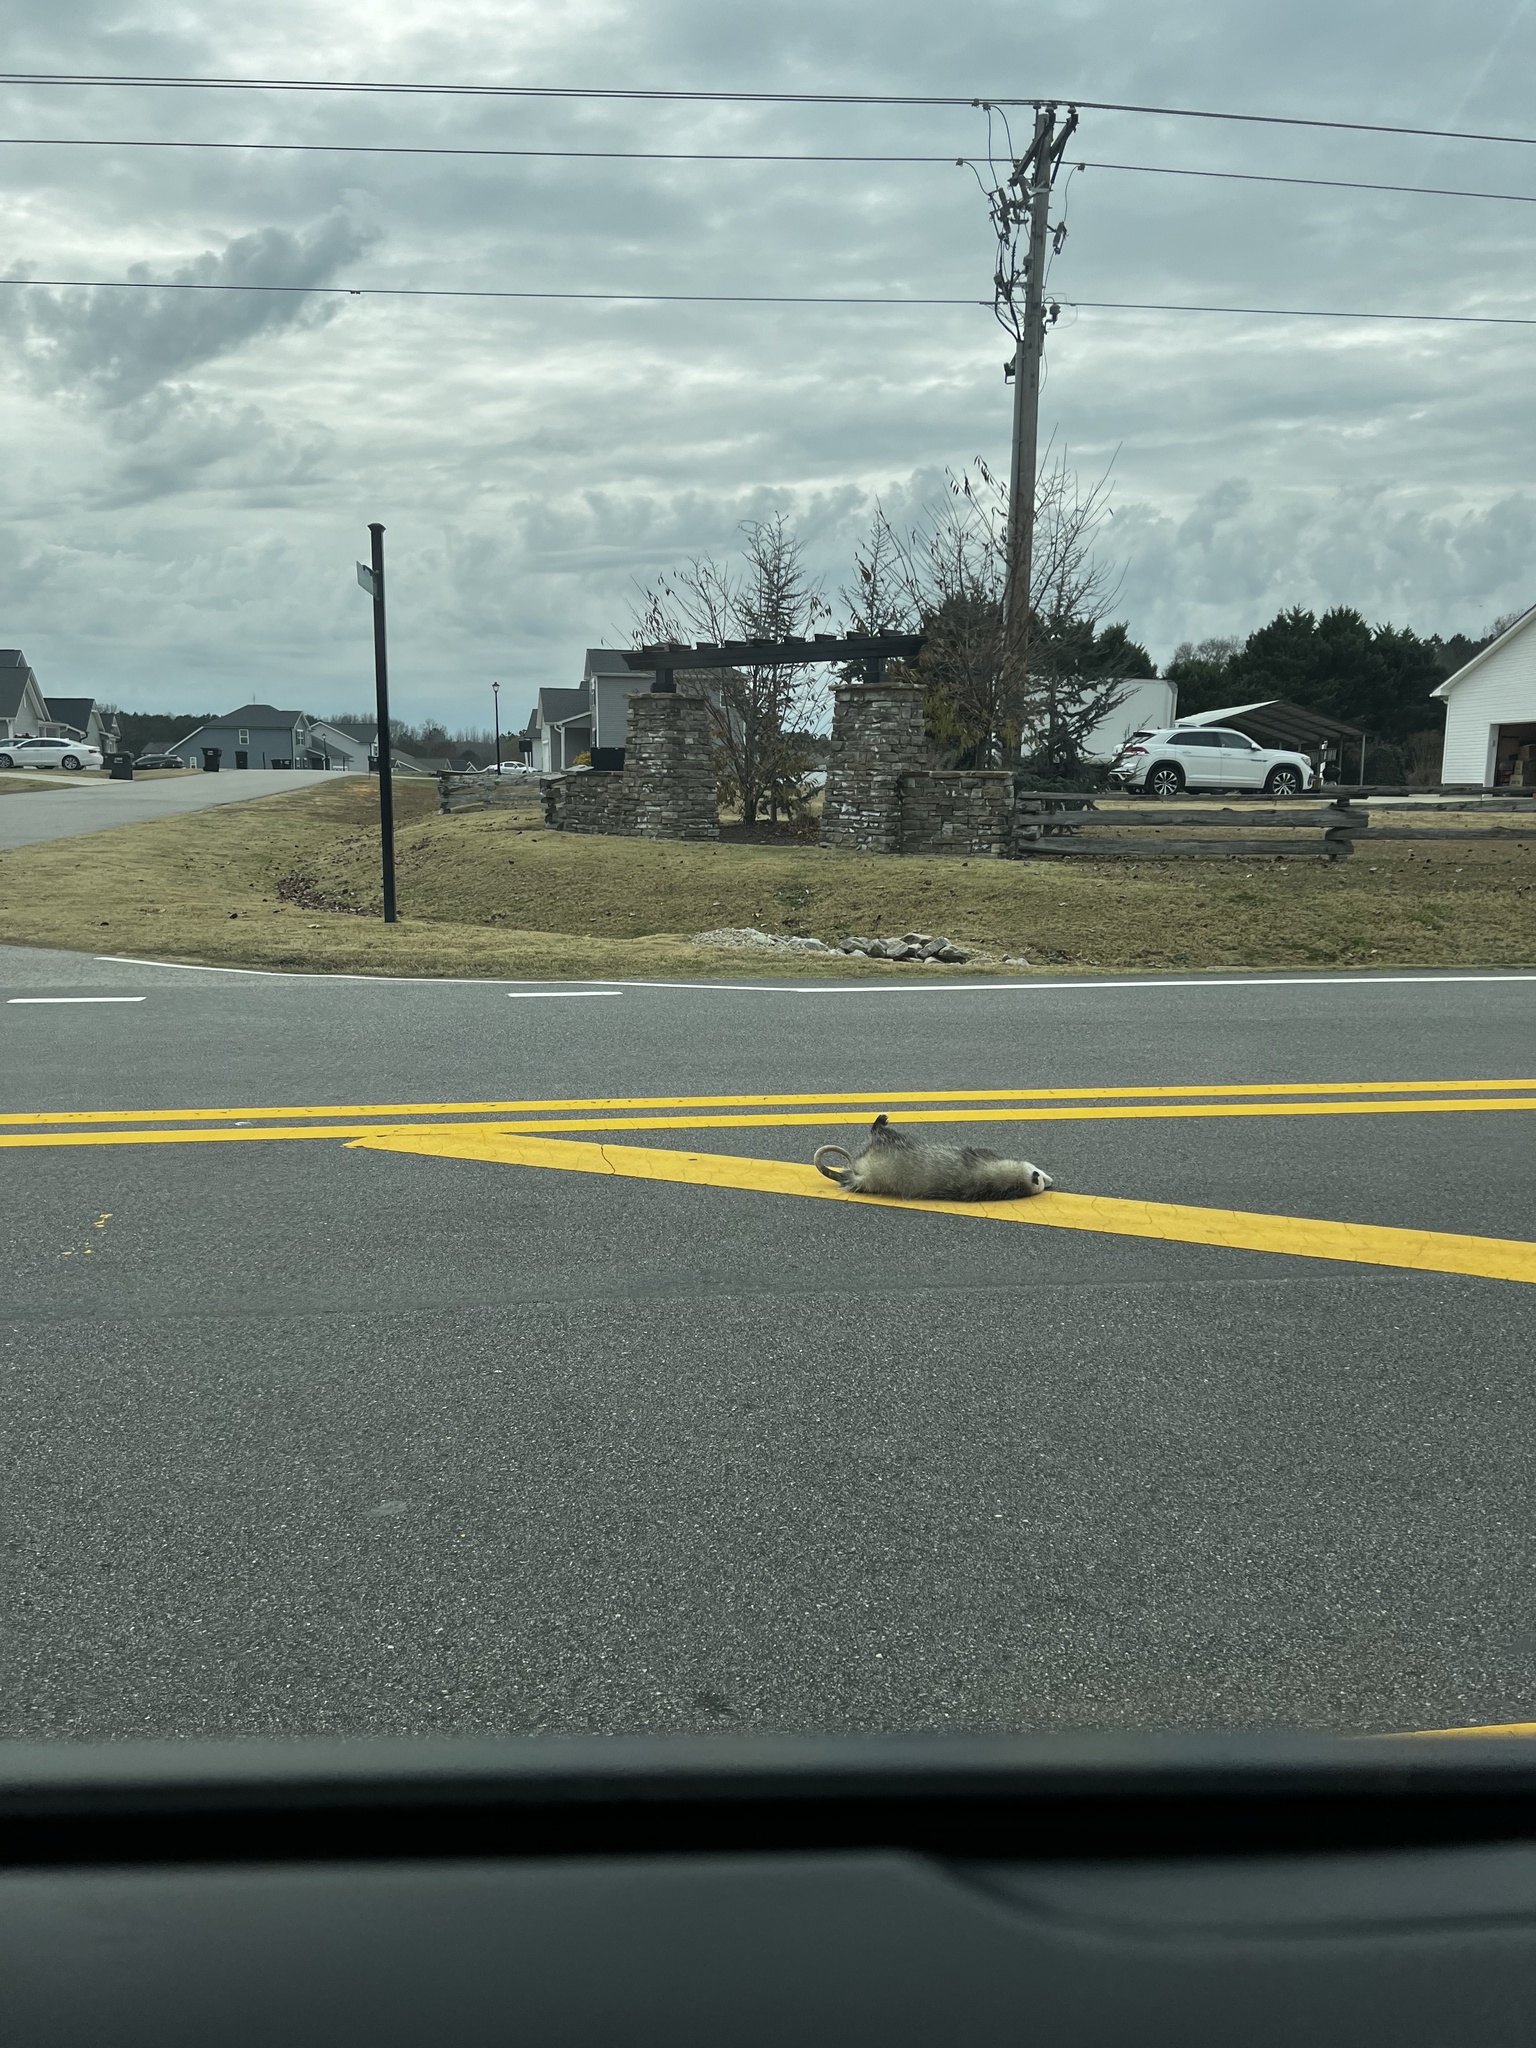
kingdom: Animalia
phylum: Chordata
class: Mammalia
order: Didelphimorphia
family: Didelphidae
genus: Didelphis
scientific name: Didelphis virginiana
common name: Virginia opossum
